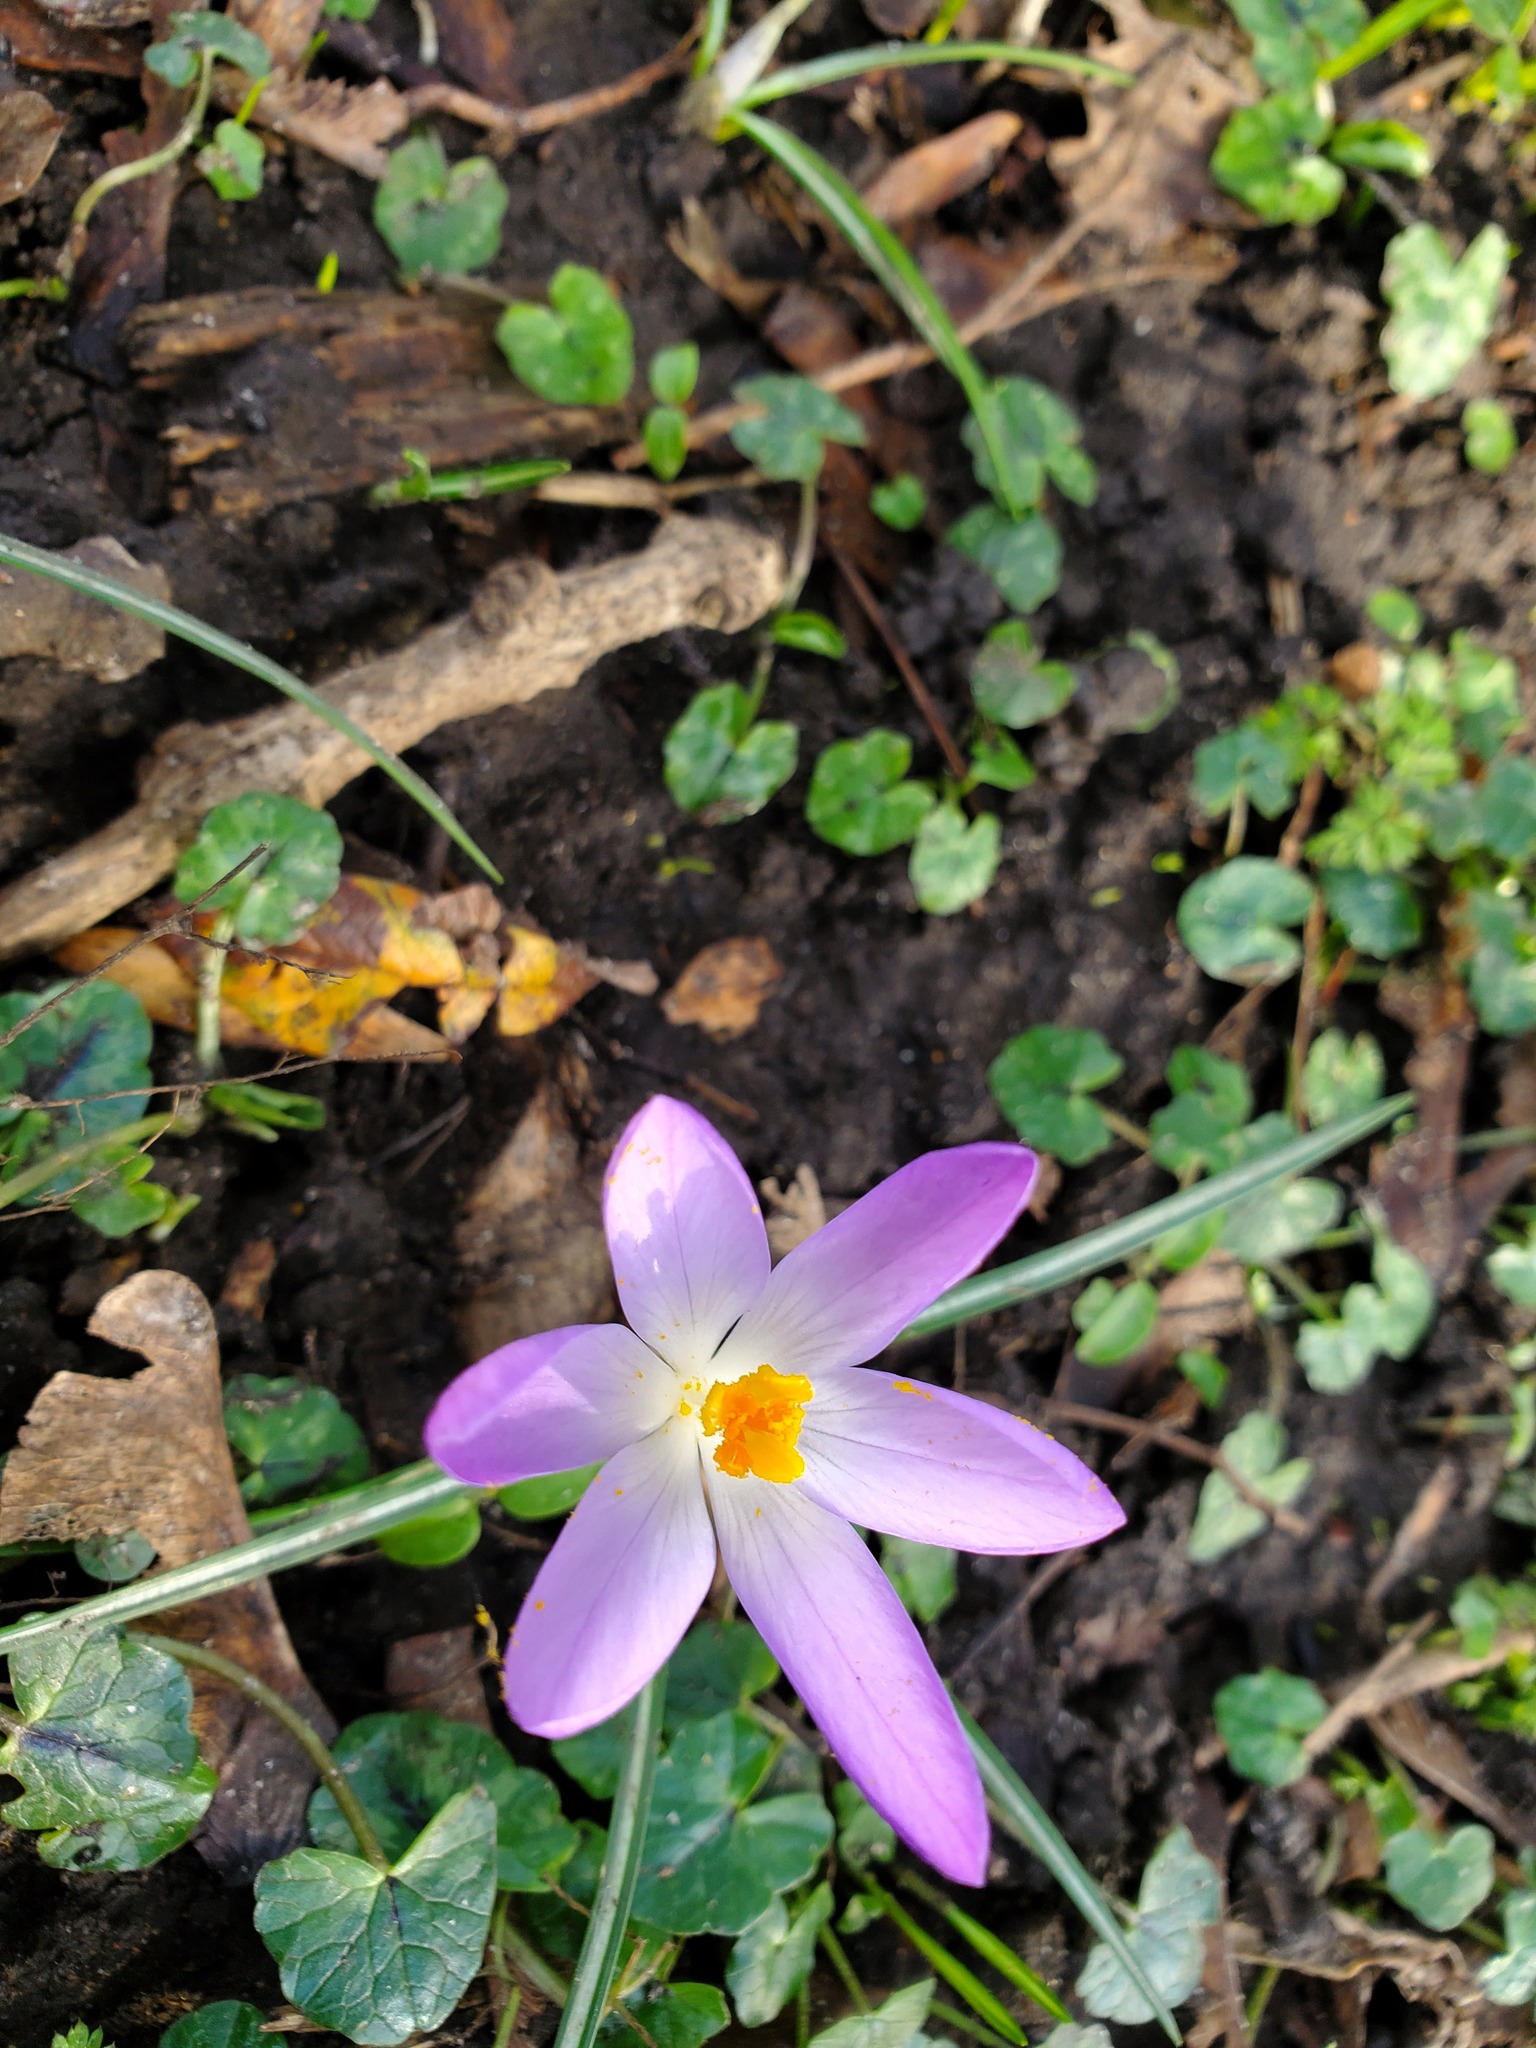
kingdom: Plantae
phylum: Tracheophyta
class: Liliopsida
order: Asparagales
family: Iridaceae
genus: Crocus
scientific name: Crocus tommasinianus
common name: Early crocus
